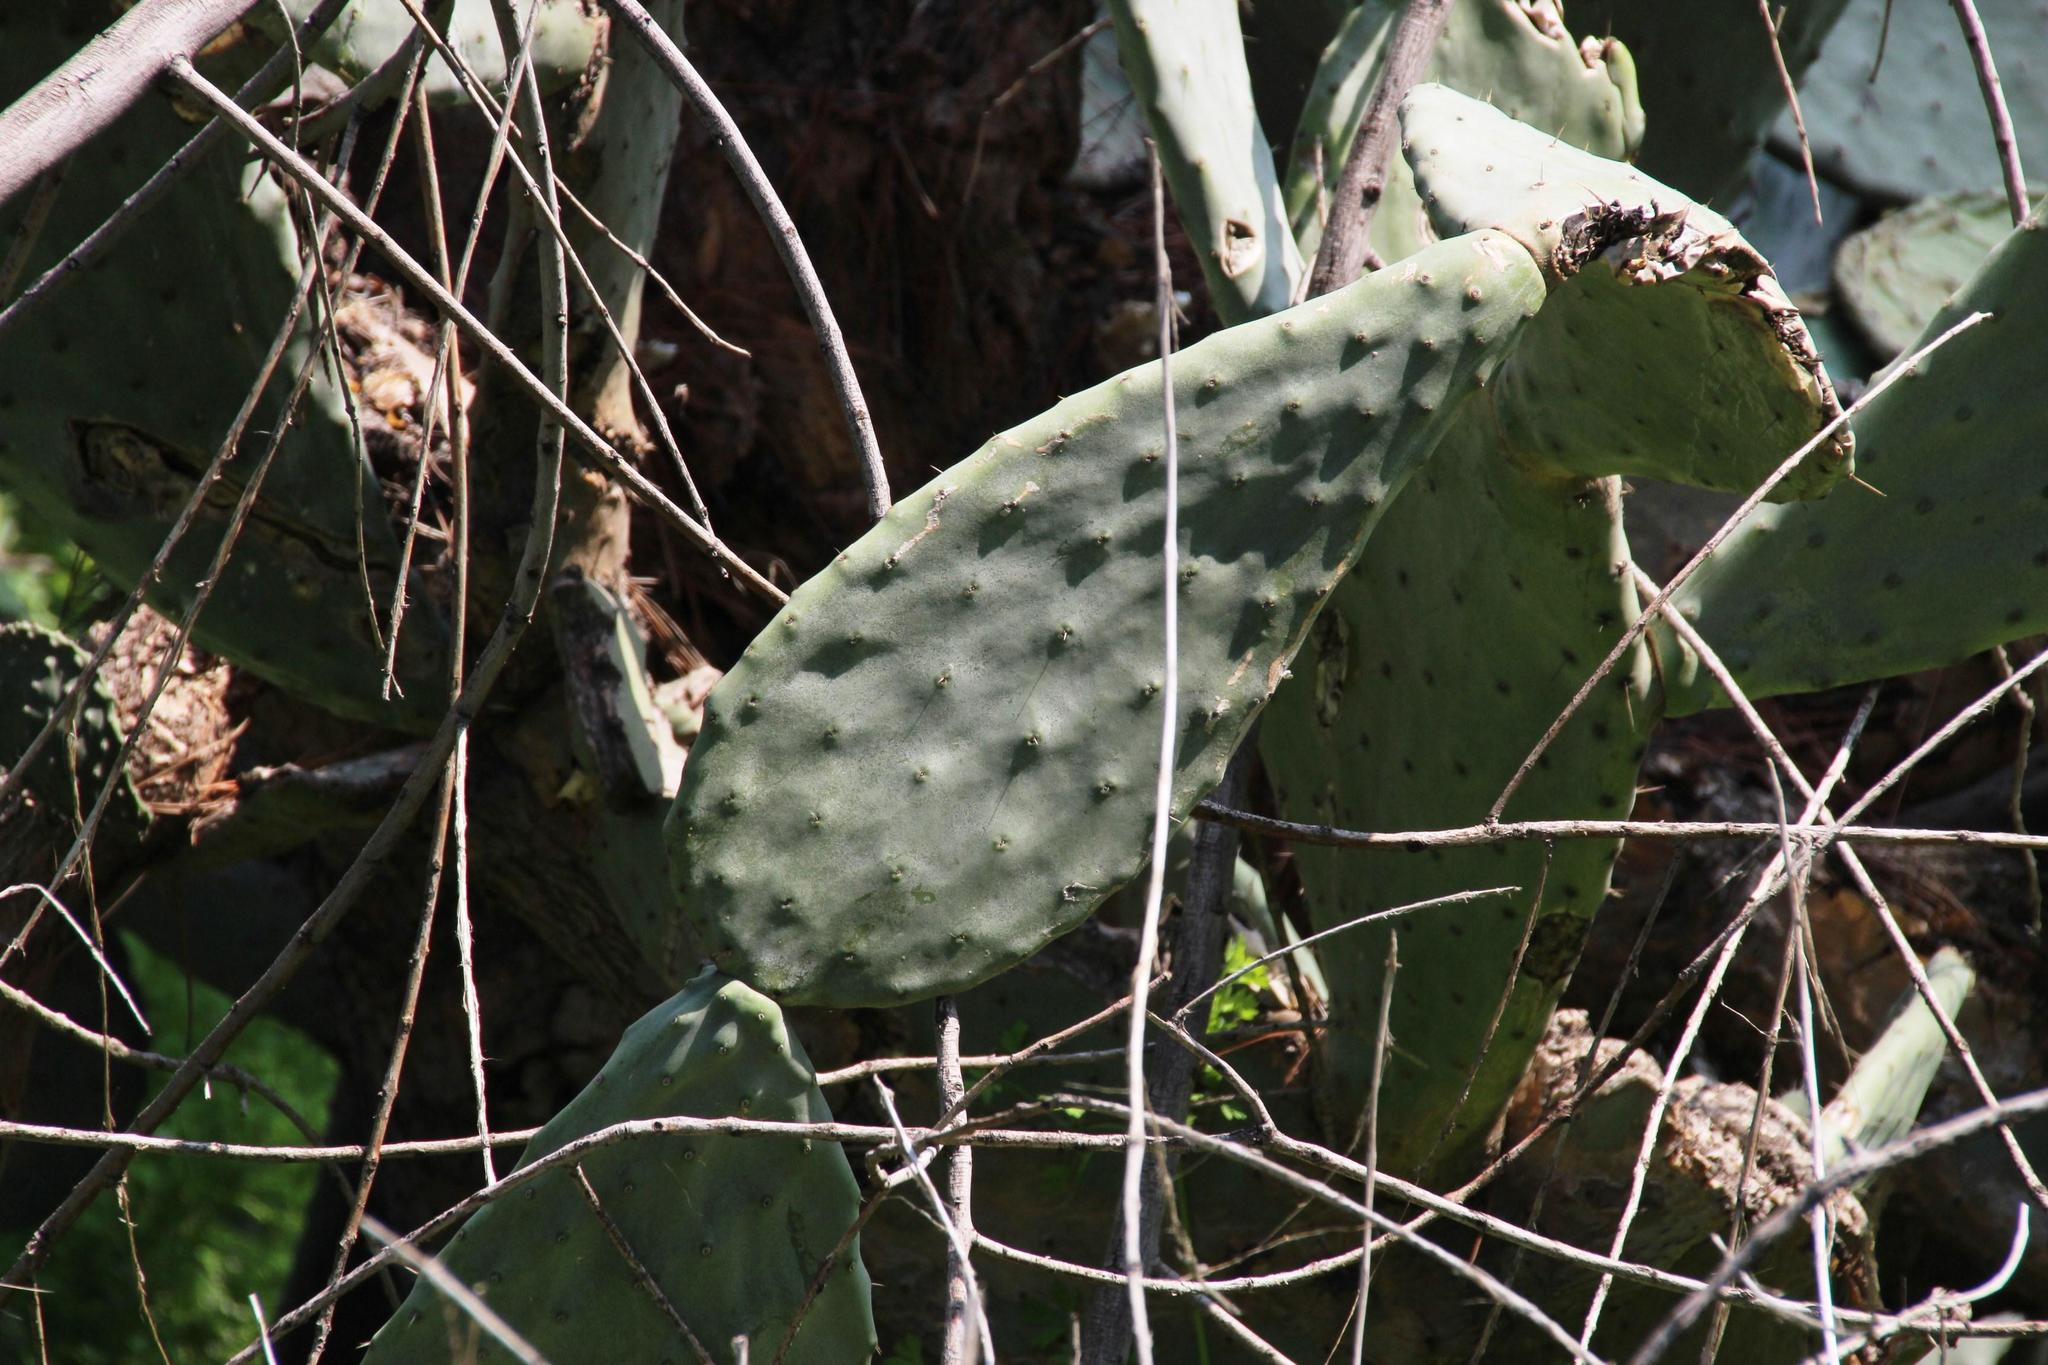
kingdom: Plantae
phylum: Tracheophyta
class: Magnoliopsida
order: Caryophyllales
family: Cactaceae
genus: Opuntia
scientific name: Opuntia ficus-indica
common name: Barbary fig
